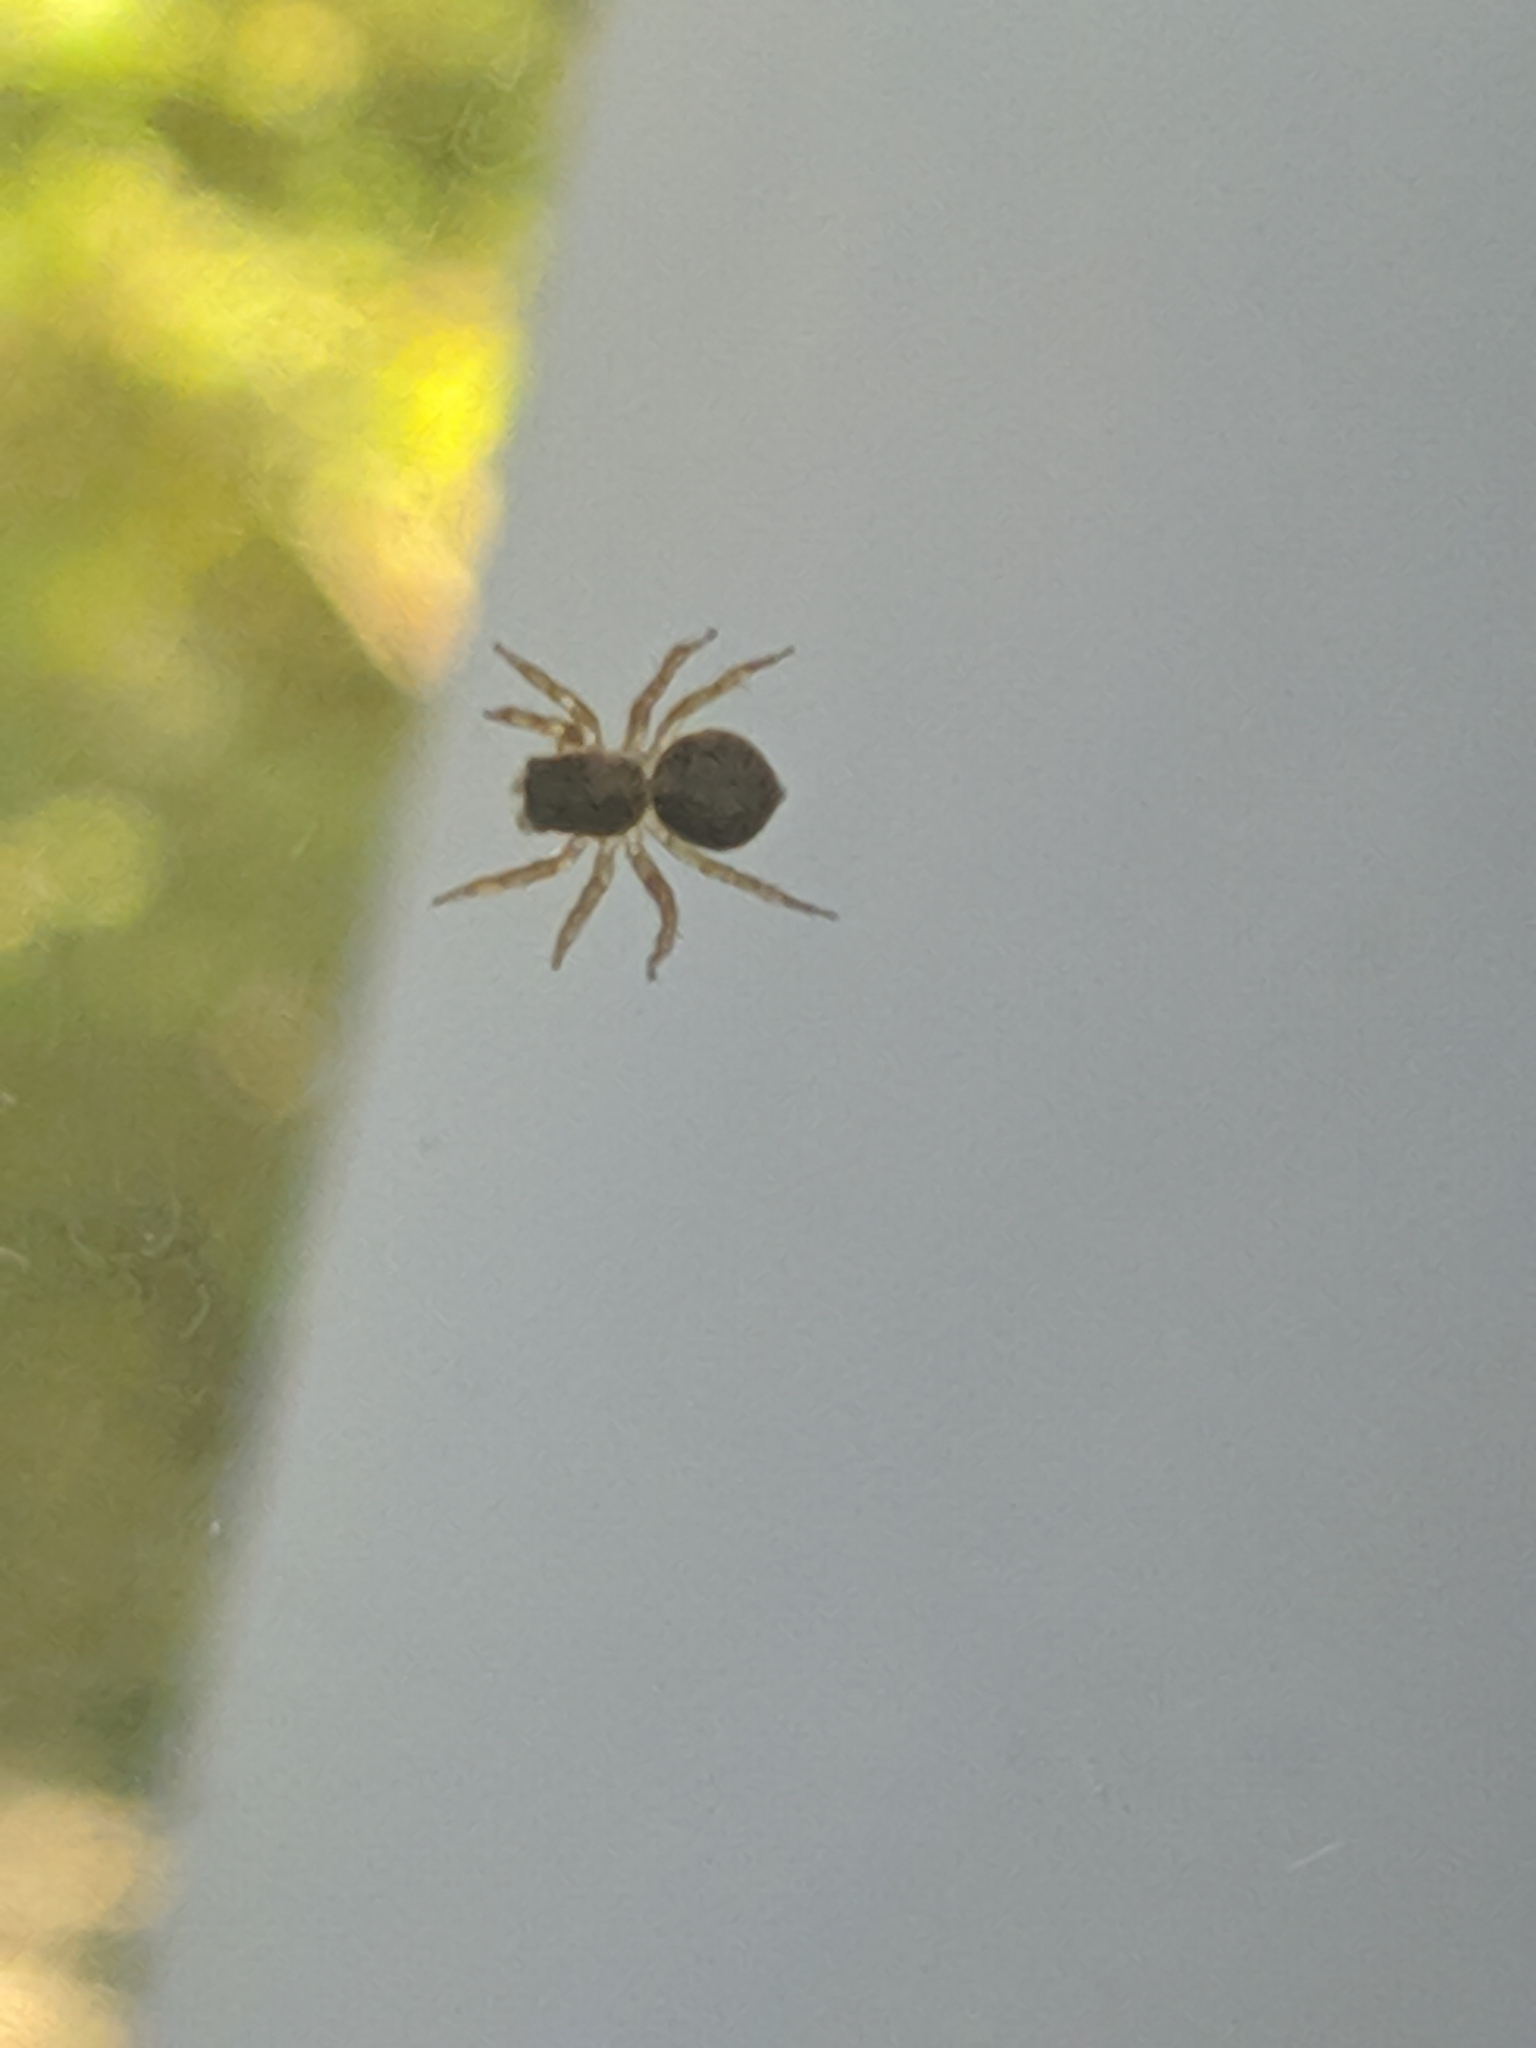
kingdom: Animalia
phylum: Arthropoda
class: Arachnida
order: Araneae
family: Salticidae
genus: Marma
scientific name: Marma nigritarsis
